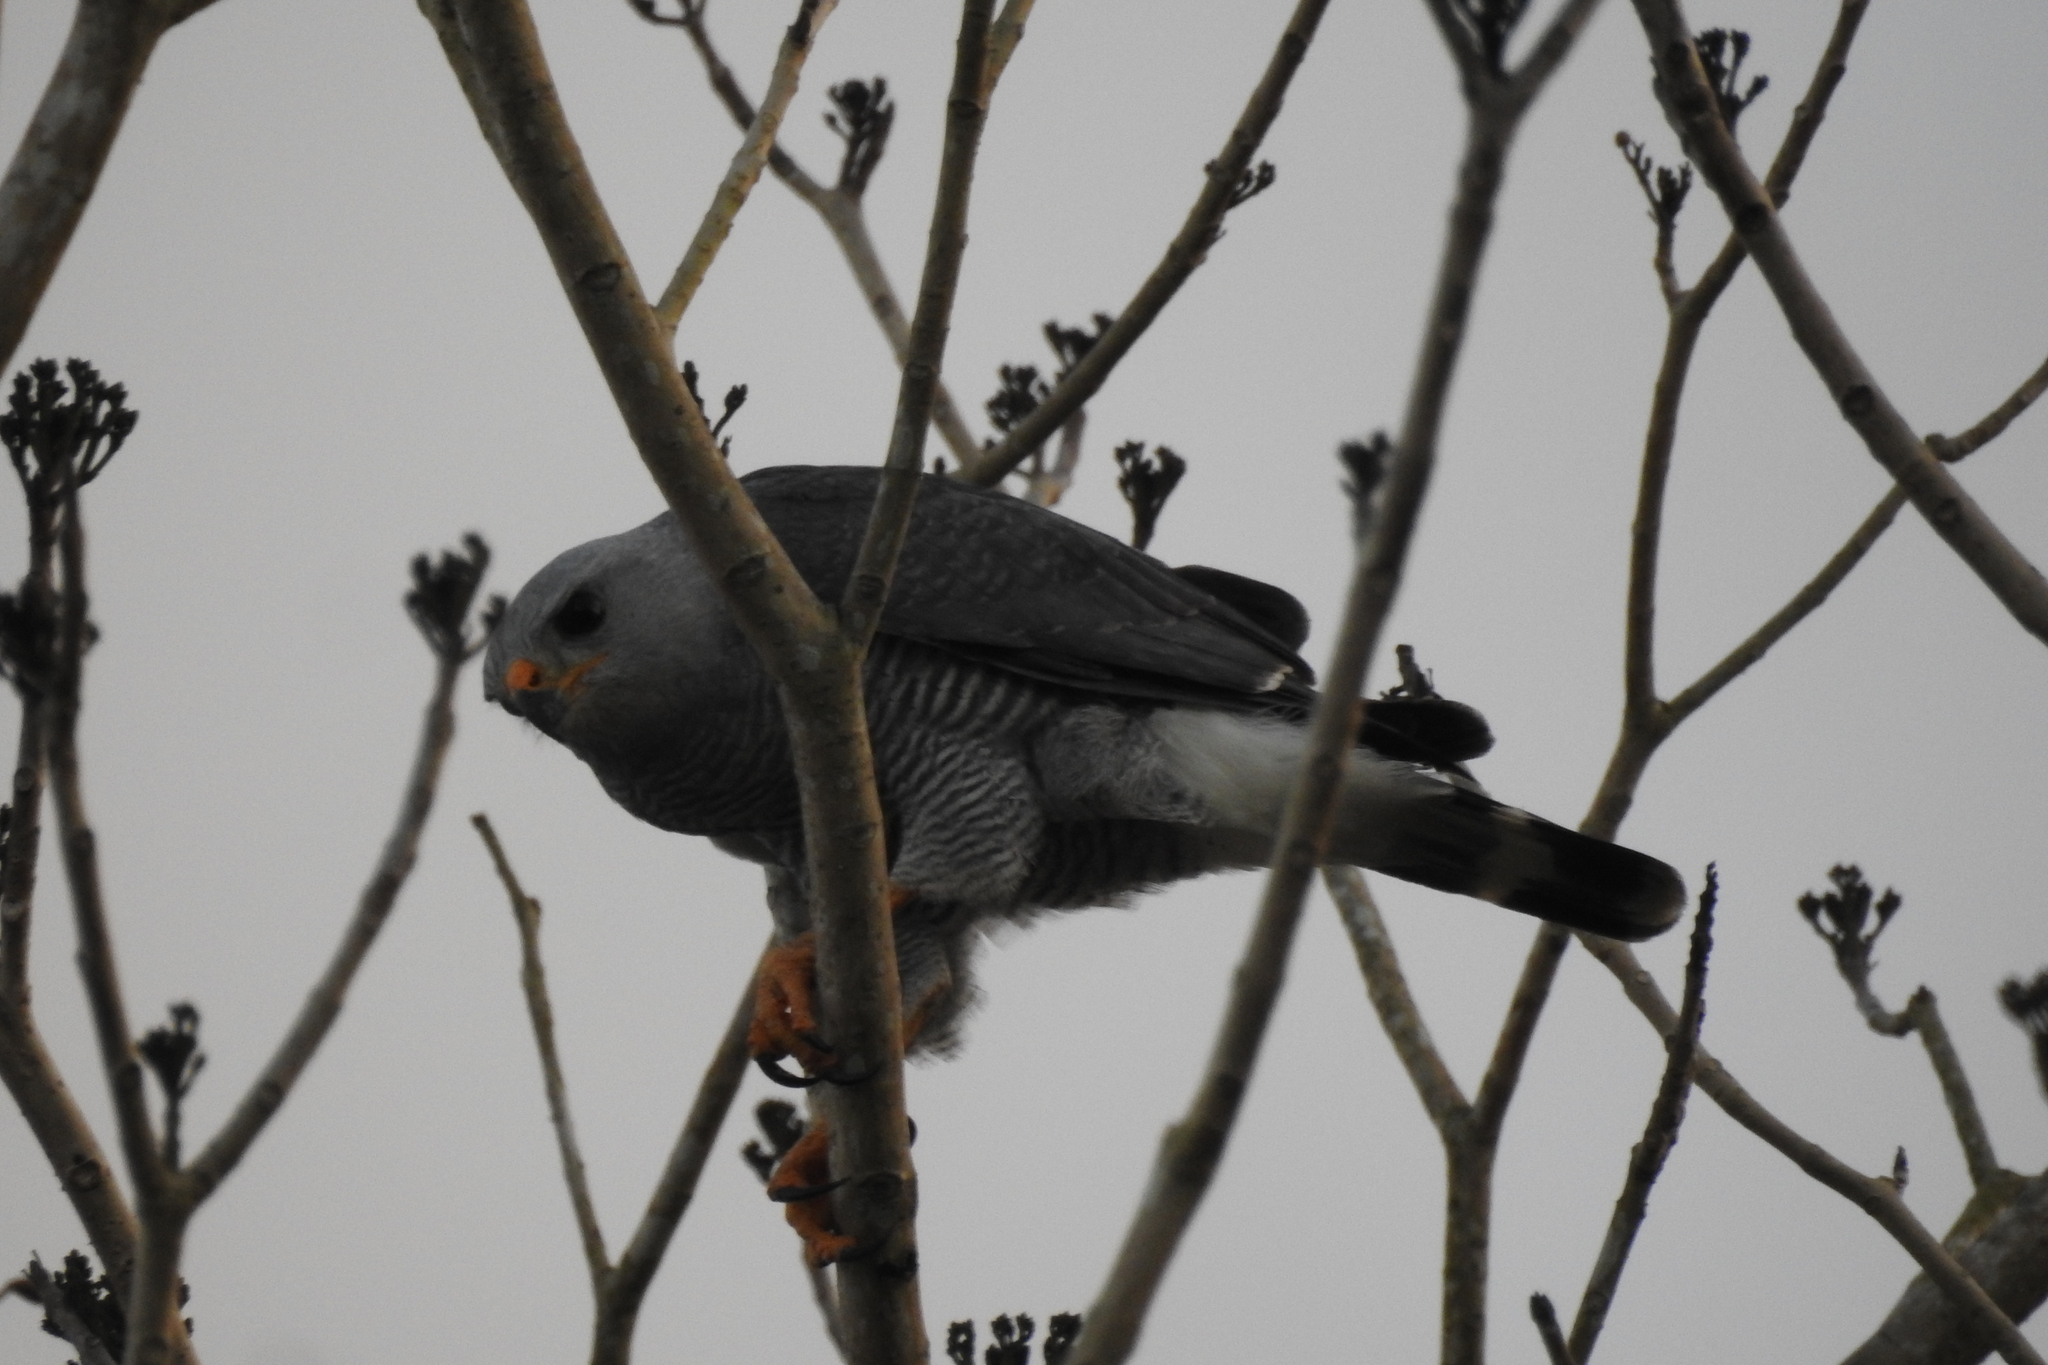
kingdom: Animalia
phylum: Chordata
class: Aves
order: Accipitriformes
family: Accipitridae
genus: Buteo
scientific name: Buteo nitidus
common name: Grey-lined hawk
